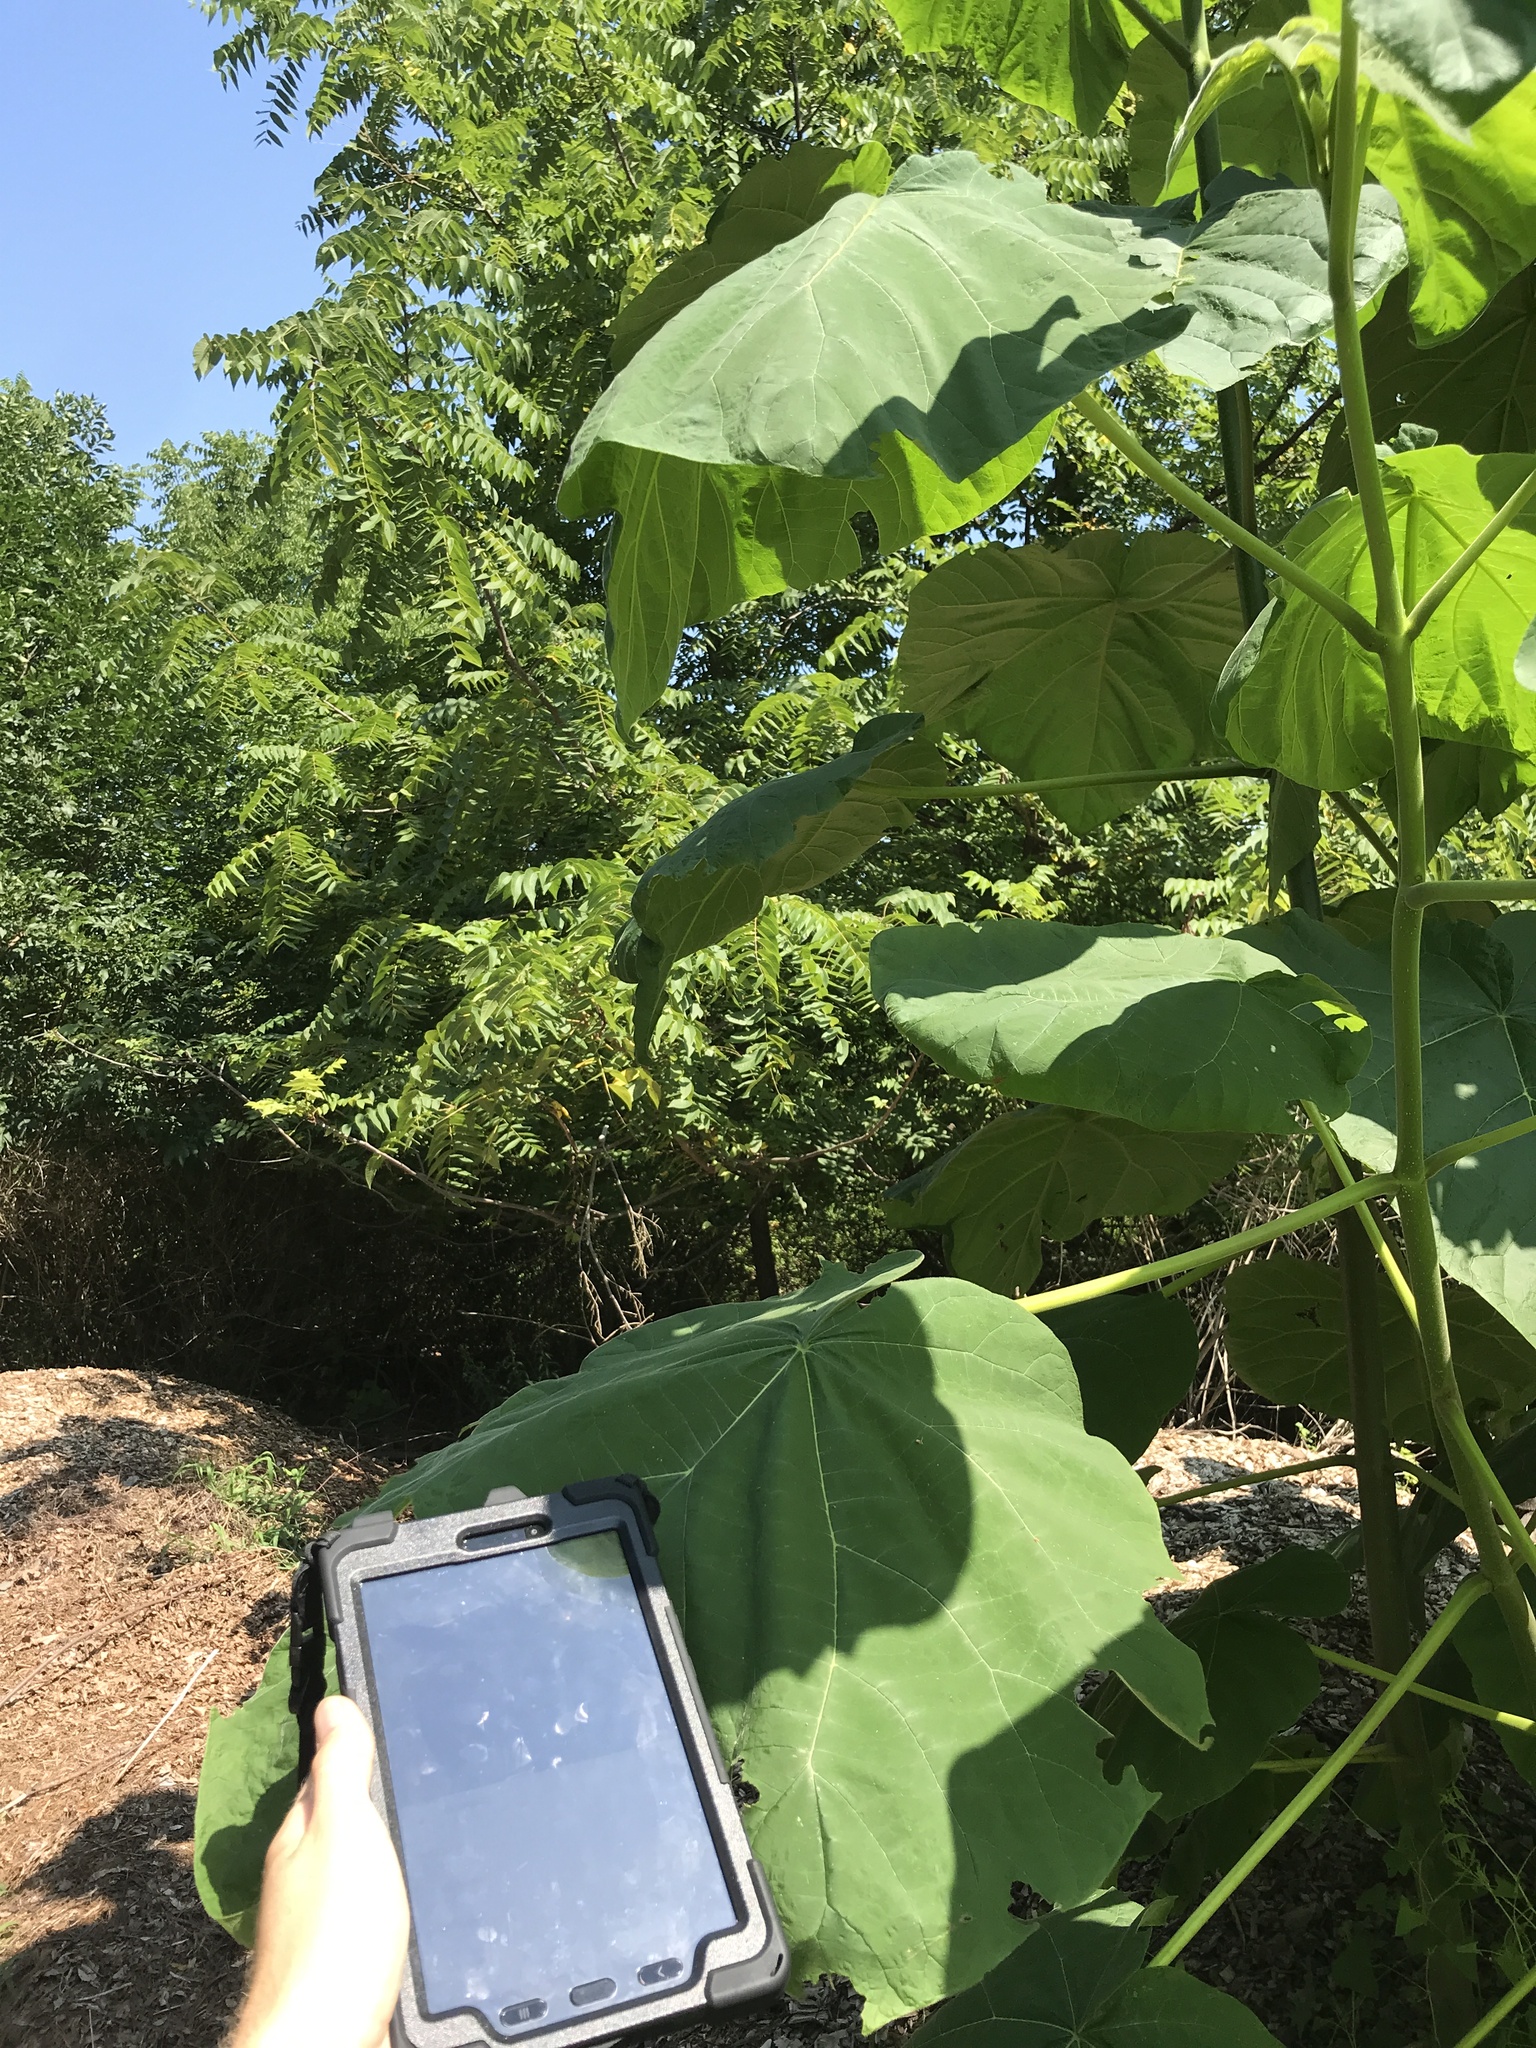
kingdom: Plantae
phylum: Tracheophyta
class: Magnoliopsida
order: Lamiales
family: Paulowniaceae
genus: Paulownia
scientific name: Paulownia tomentosa
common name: Foxglove-tree
